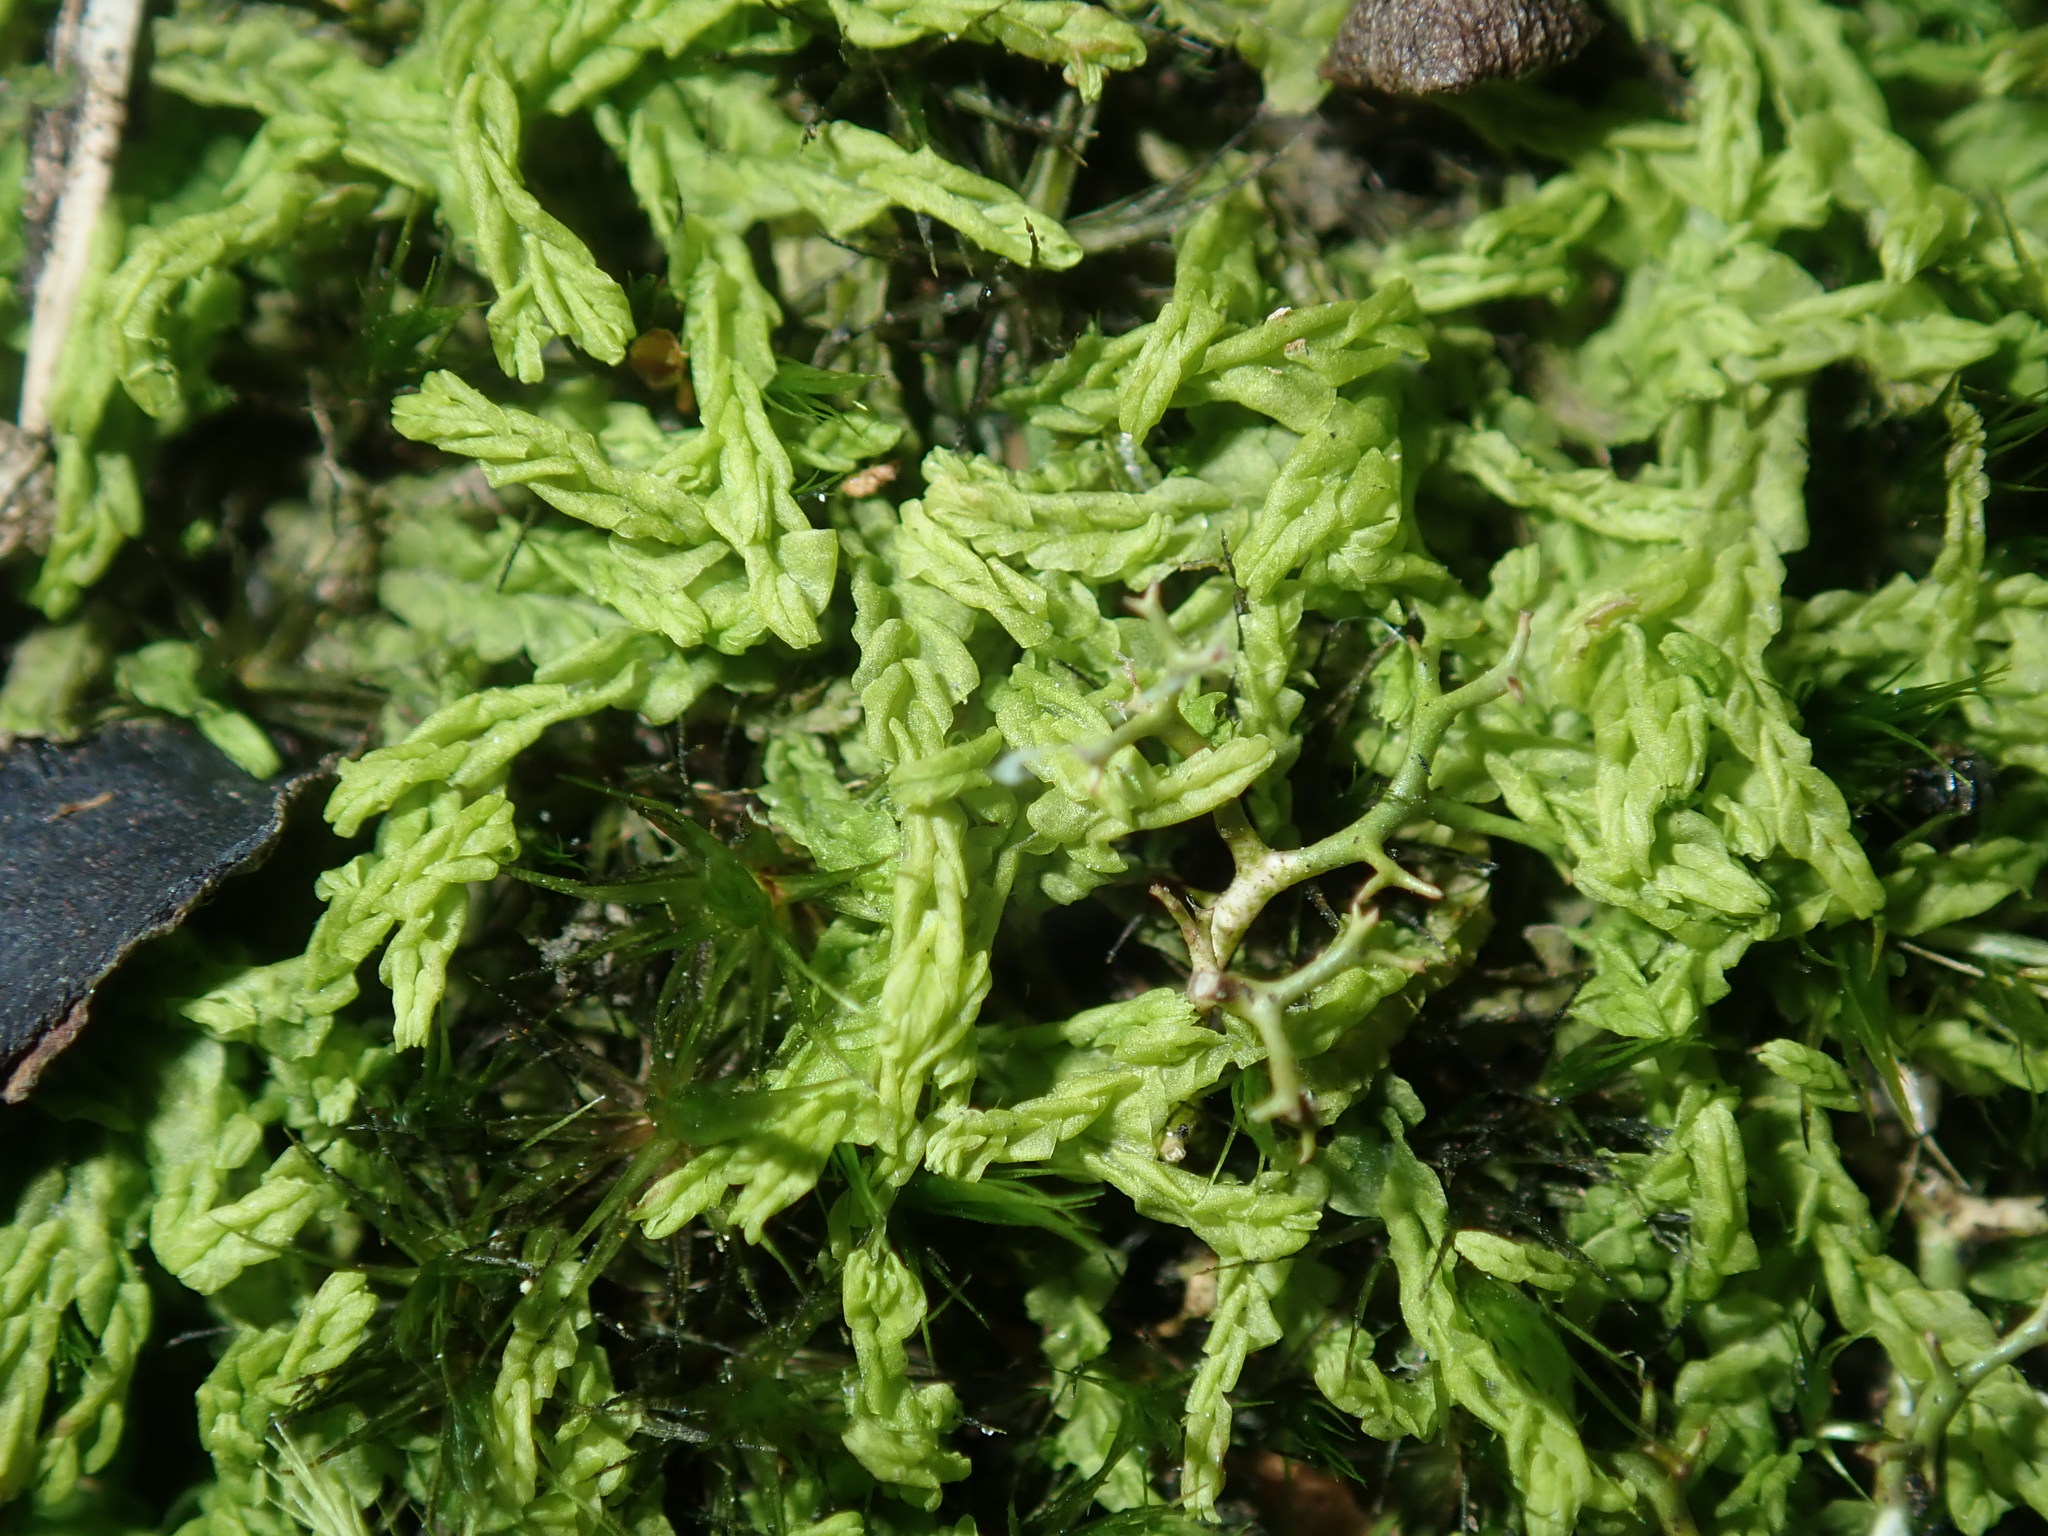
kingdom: Plantae
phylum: Marchantiophyta
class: Jungermanniopsida
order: Jungermanniales
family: Lophocoleaceae
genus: Lophocolea
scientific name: Lophocolea semiteres
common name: Southern crestwort
